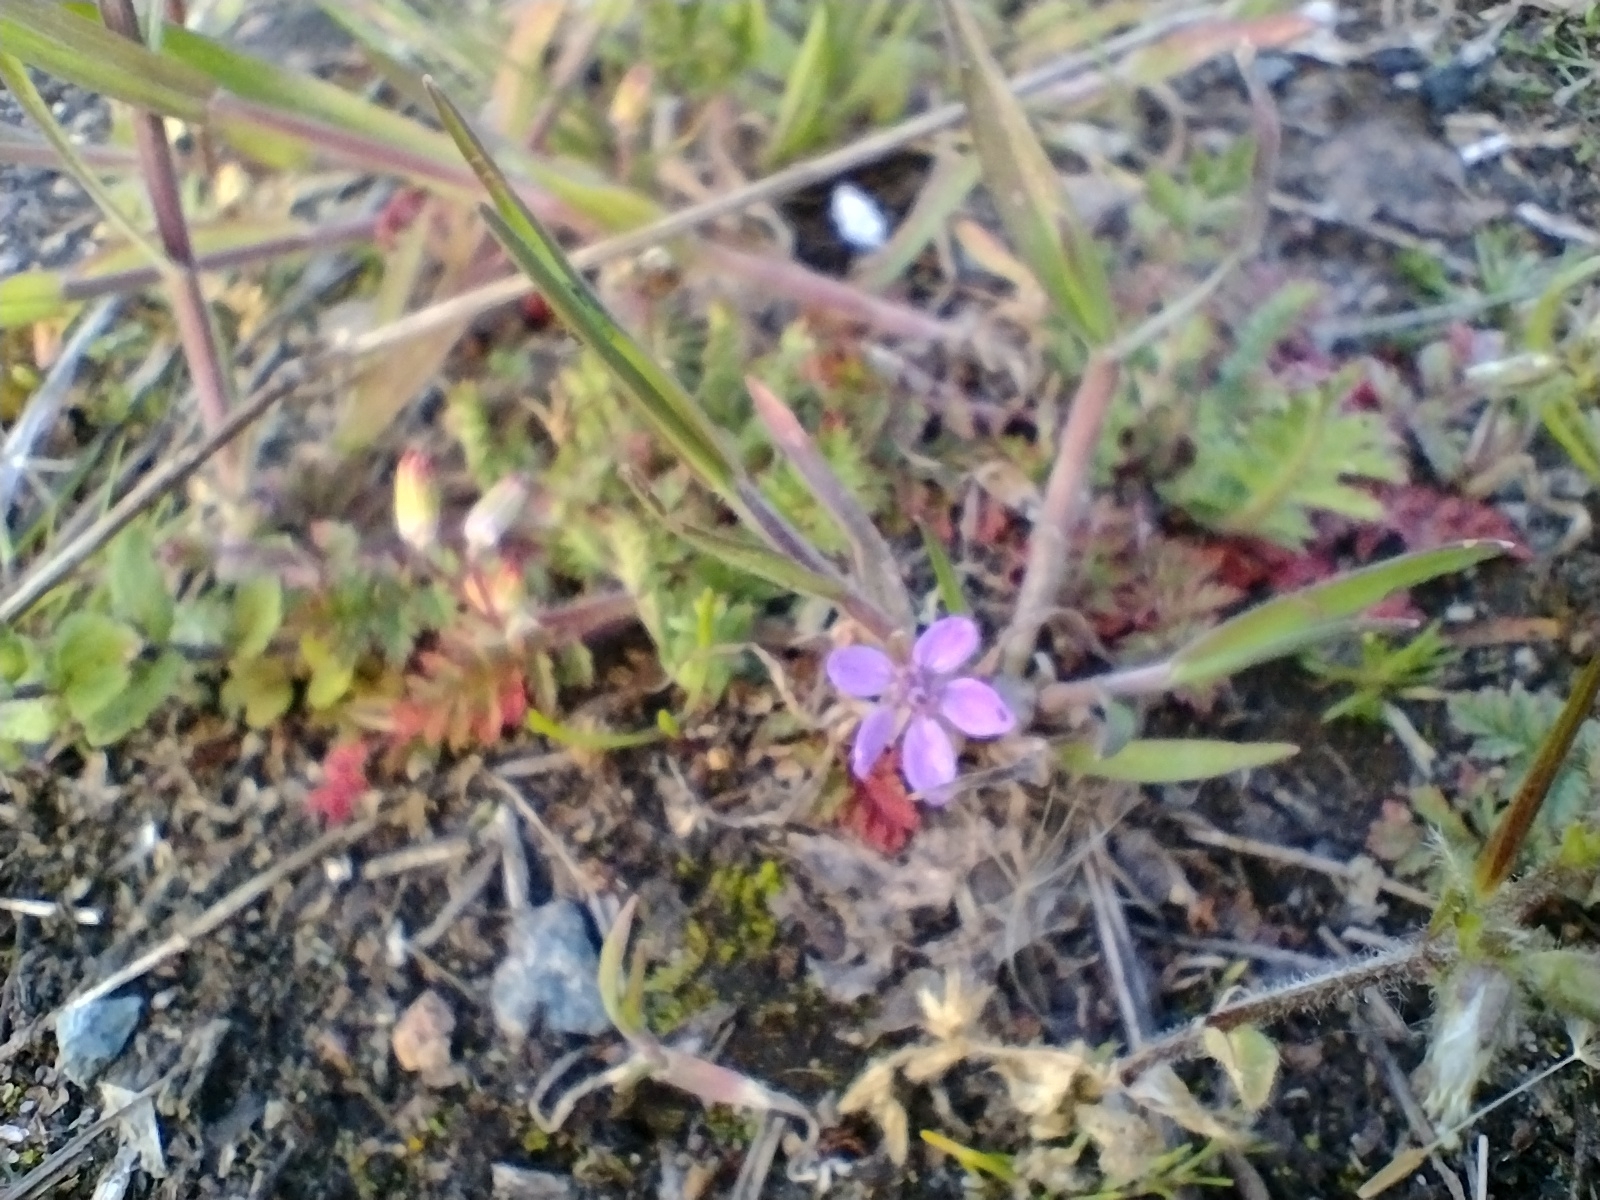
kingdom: Plantae
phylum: Tracheophyta
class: Magnoliopsida
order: Geraniales
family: Geraniaceae
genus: Erodium
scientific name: Erodium cicutarium
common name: Common stork's-bill
